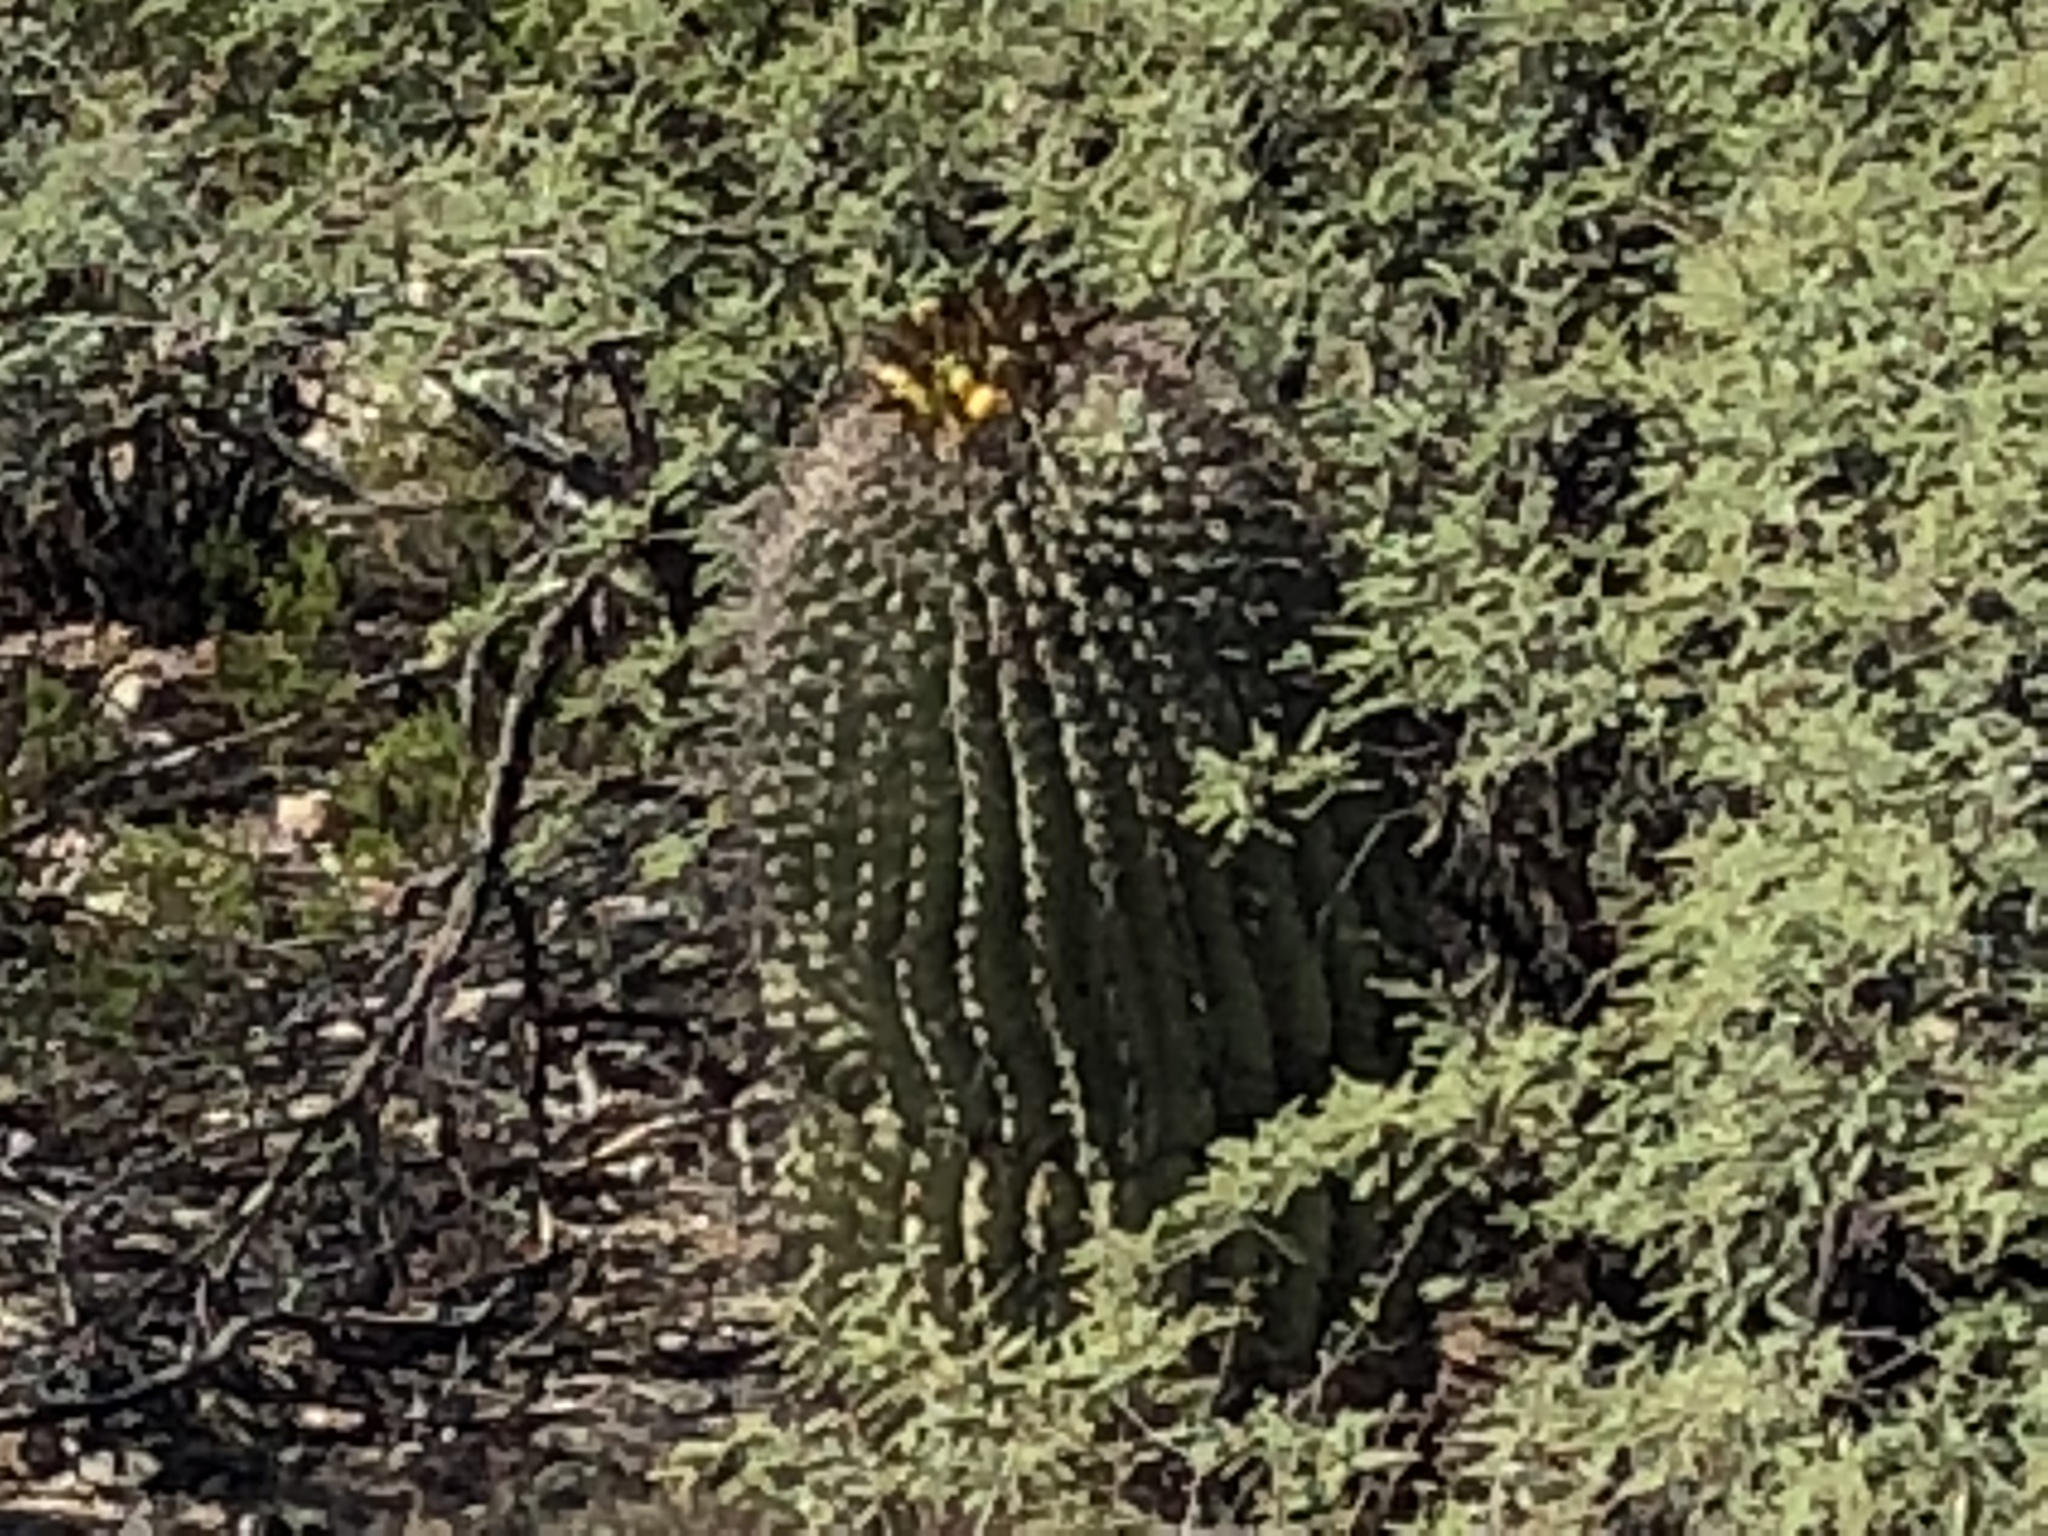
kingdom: Plantae
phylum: Tracheophyta
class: Magnoliopsida
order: Caryophyllales
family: Cactaceae
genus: Ferocactus
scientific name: Ferocactus wislizeni
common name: Candy barrel cactus
